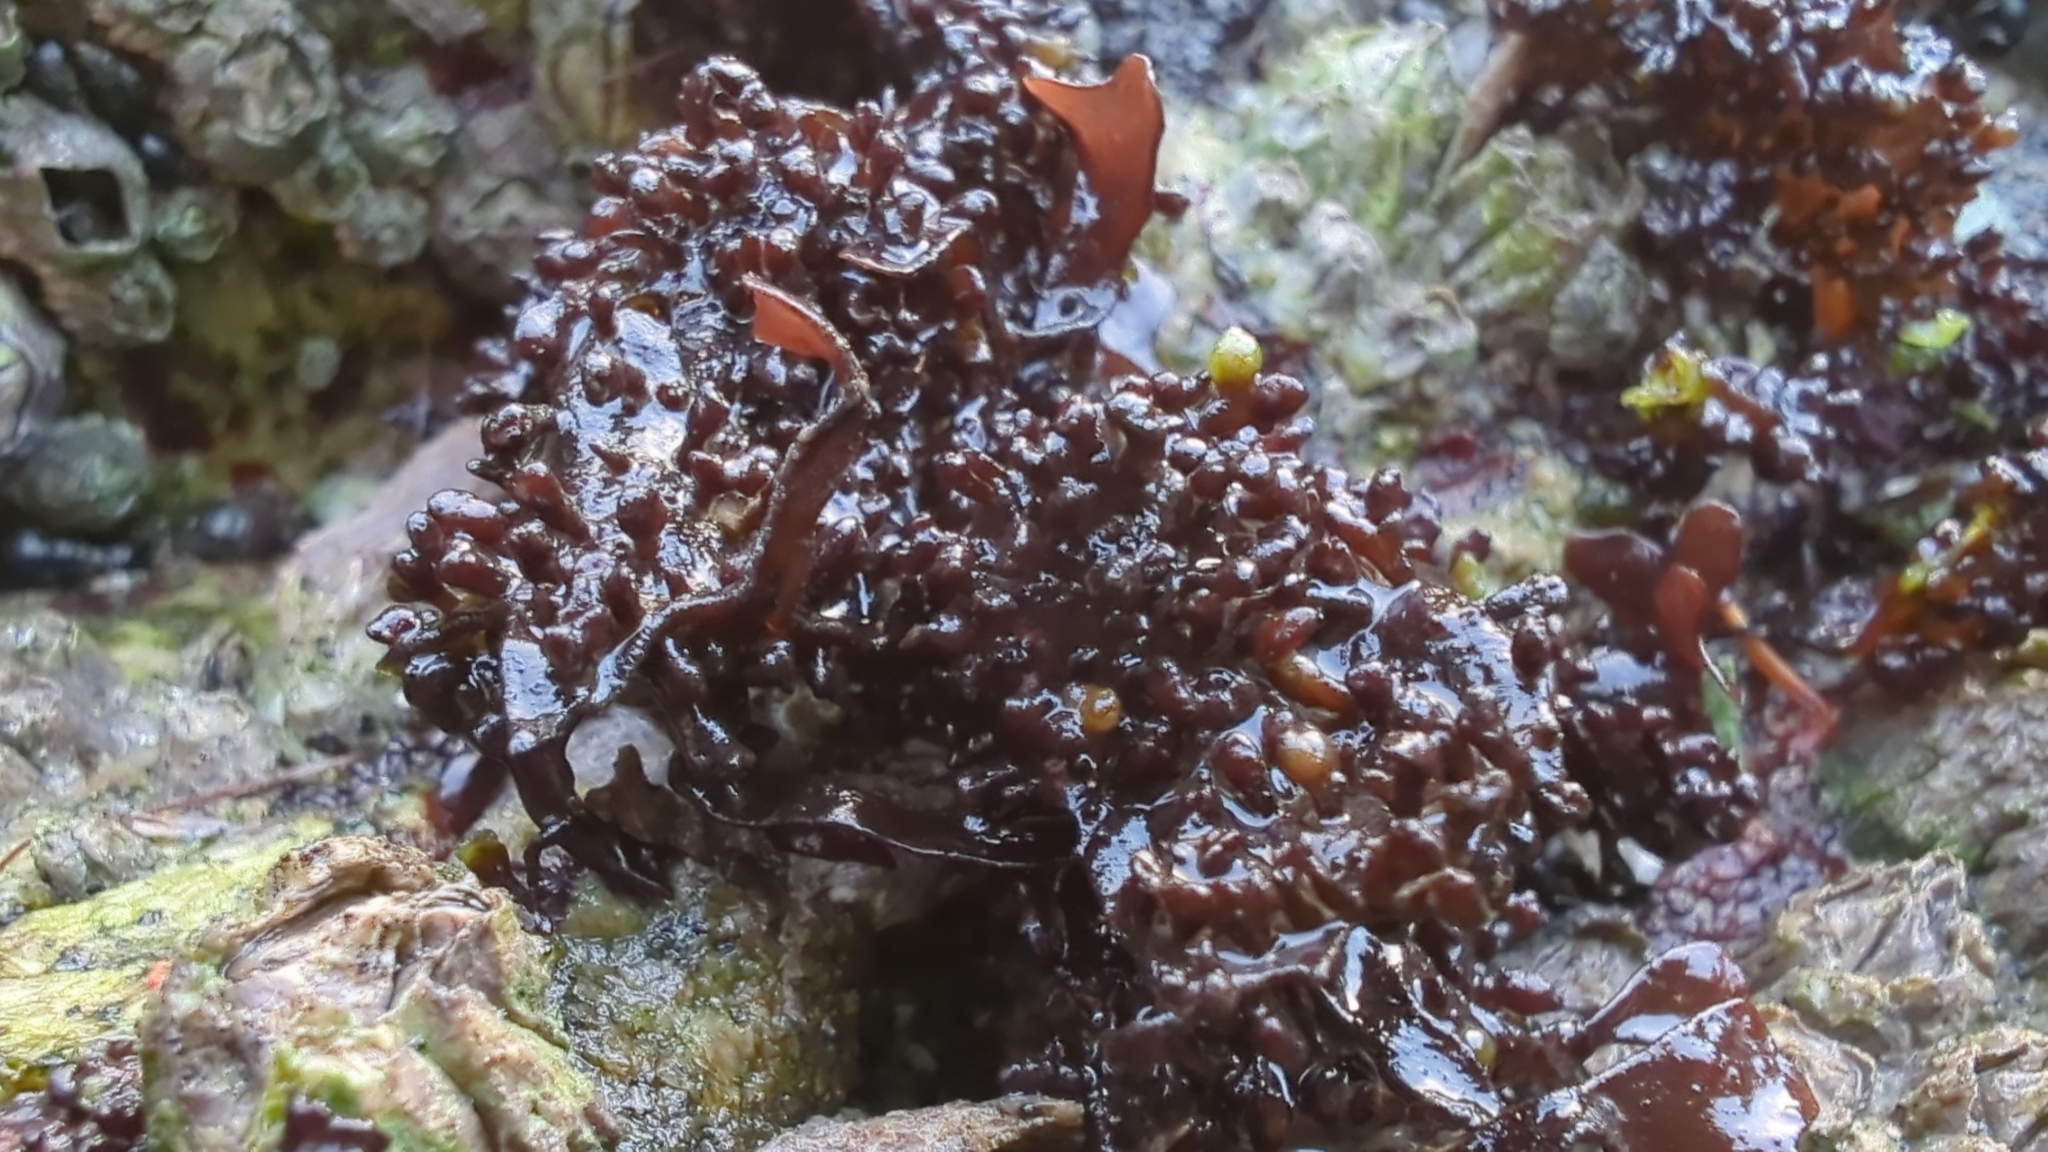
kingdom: Plantae
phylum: Rhodophyta
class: Florideophyceae
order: Gigartinales
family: Phyllophoraceae
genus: Mastocarpus
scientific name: Mastocarpus papillatus
